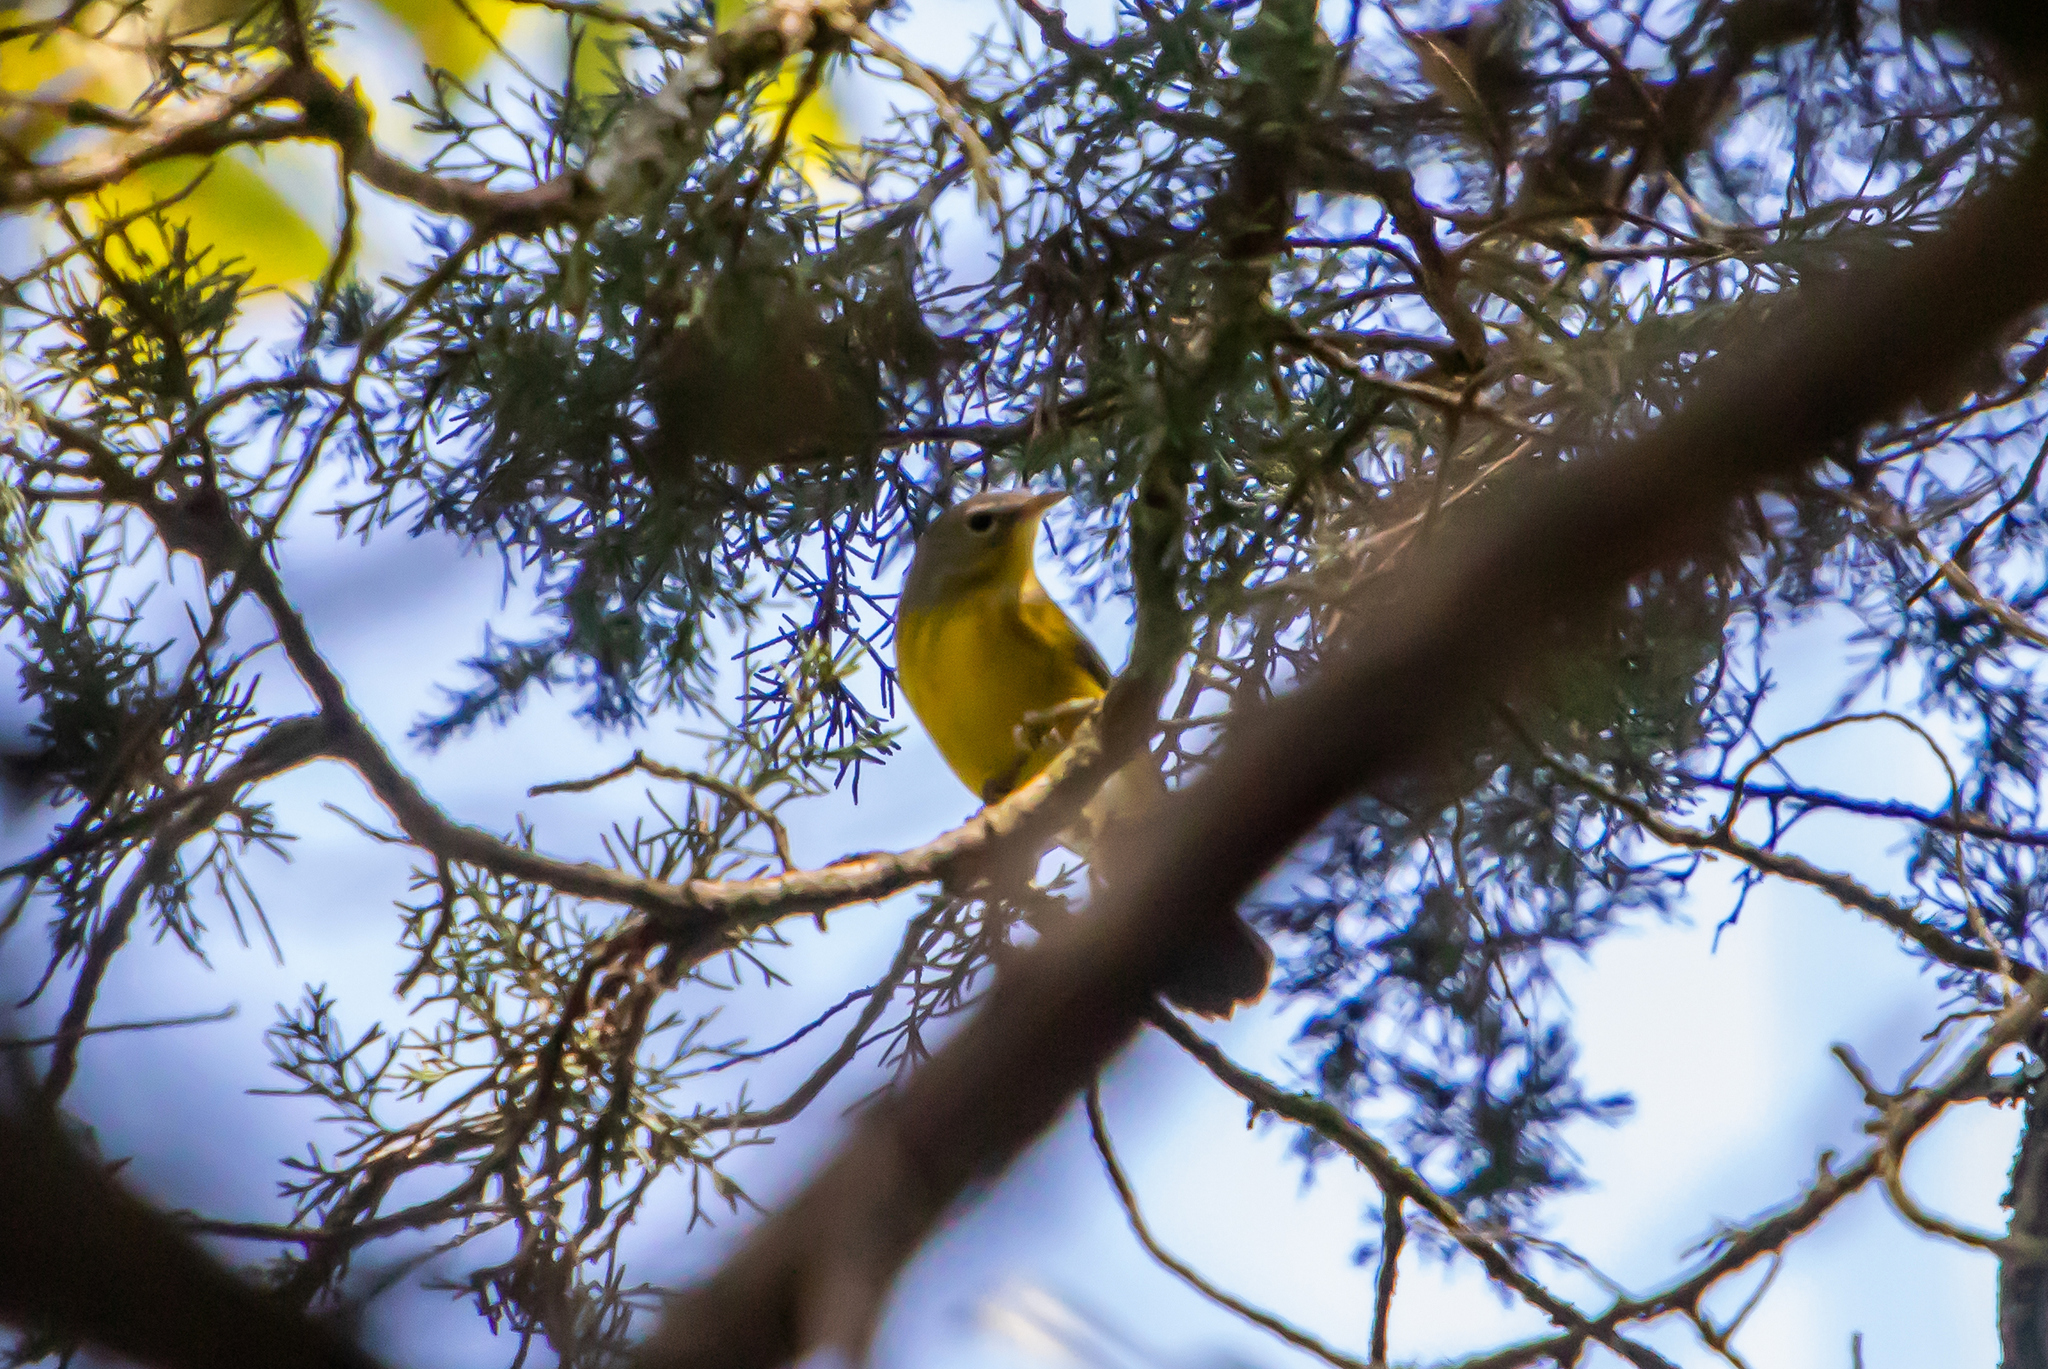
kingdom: Animalia
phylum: Chordata
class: Aves
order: Passeriformes
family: Parulidae
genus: Setophaga
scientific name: Setophaga magnolia
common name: Magnolia warbler
